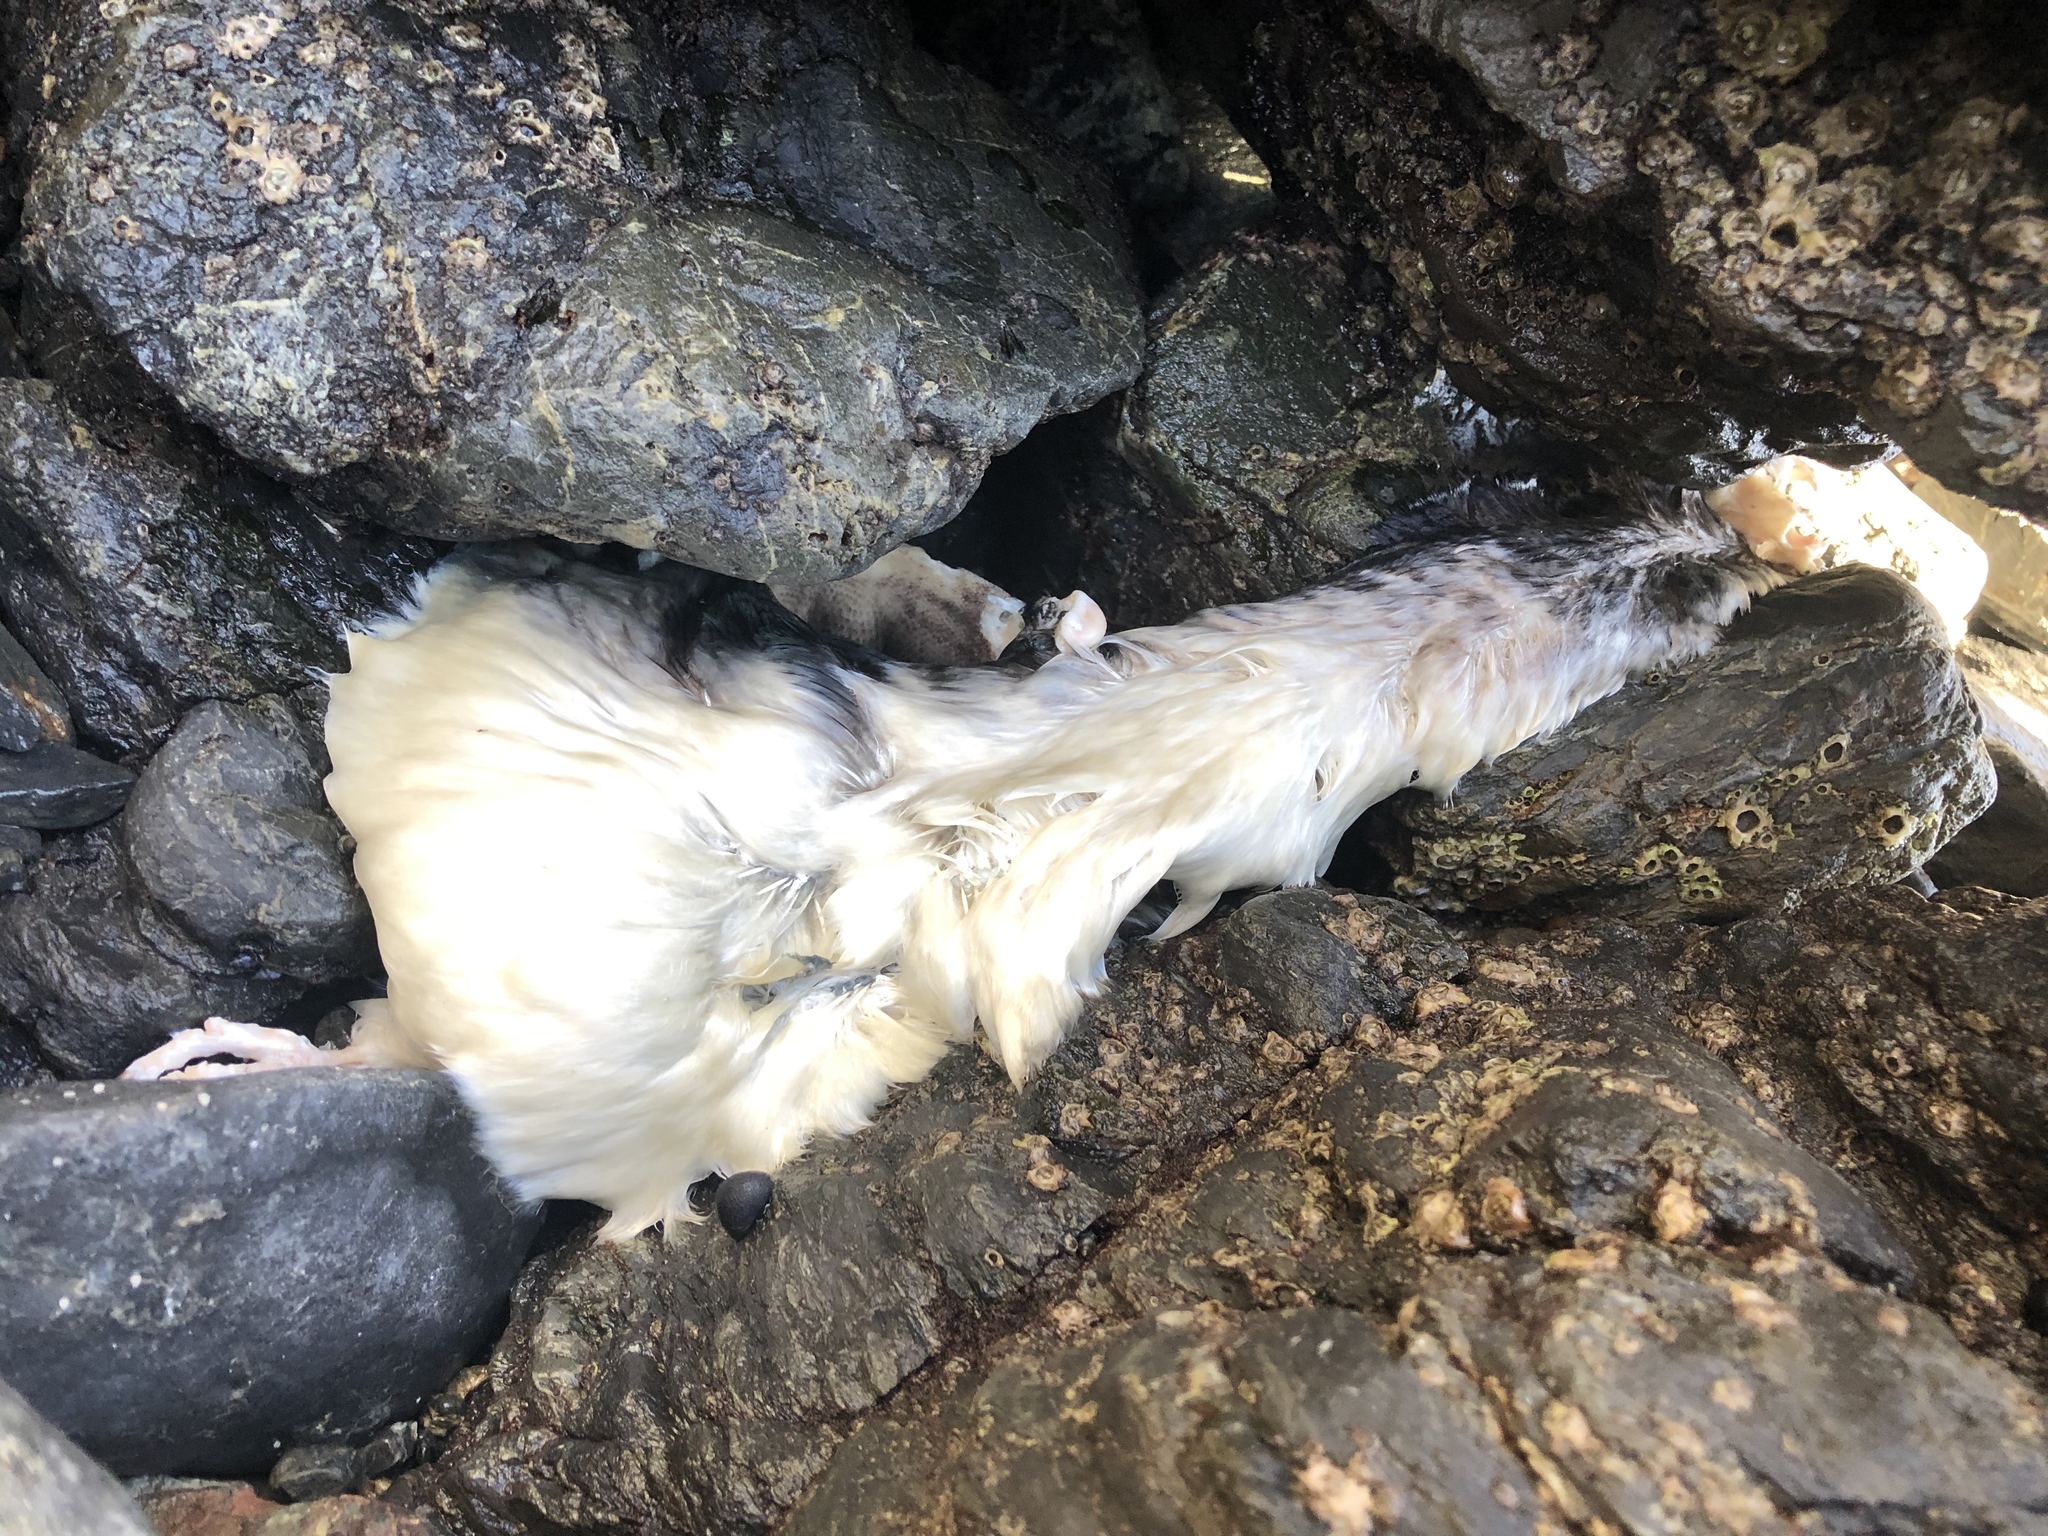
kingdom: Animalia
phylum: Chordata
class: Aves
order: Sphenisciformes
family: Spheniscidae
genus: Eudyptula
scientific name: Eudyptula minor
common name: Little penguin
